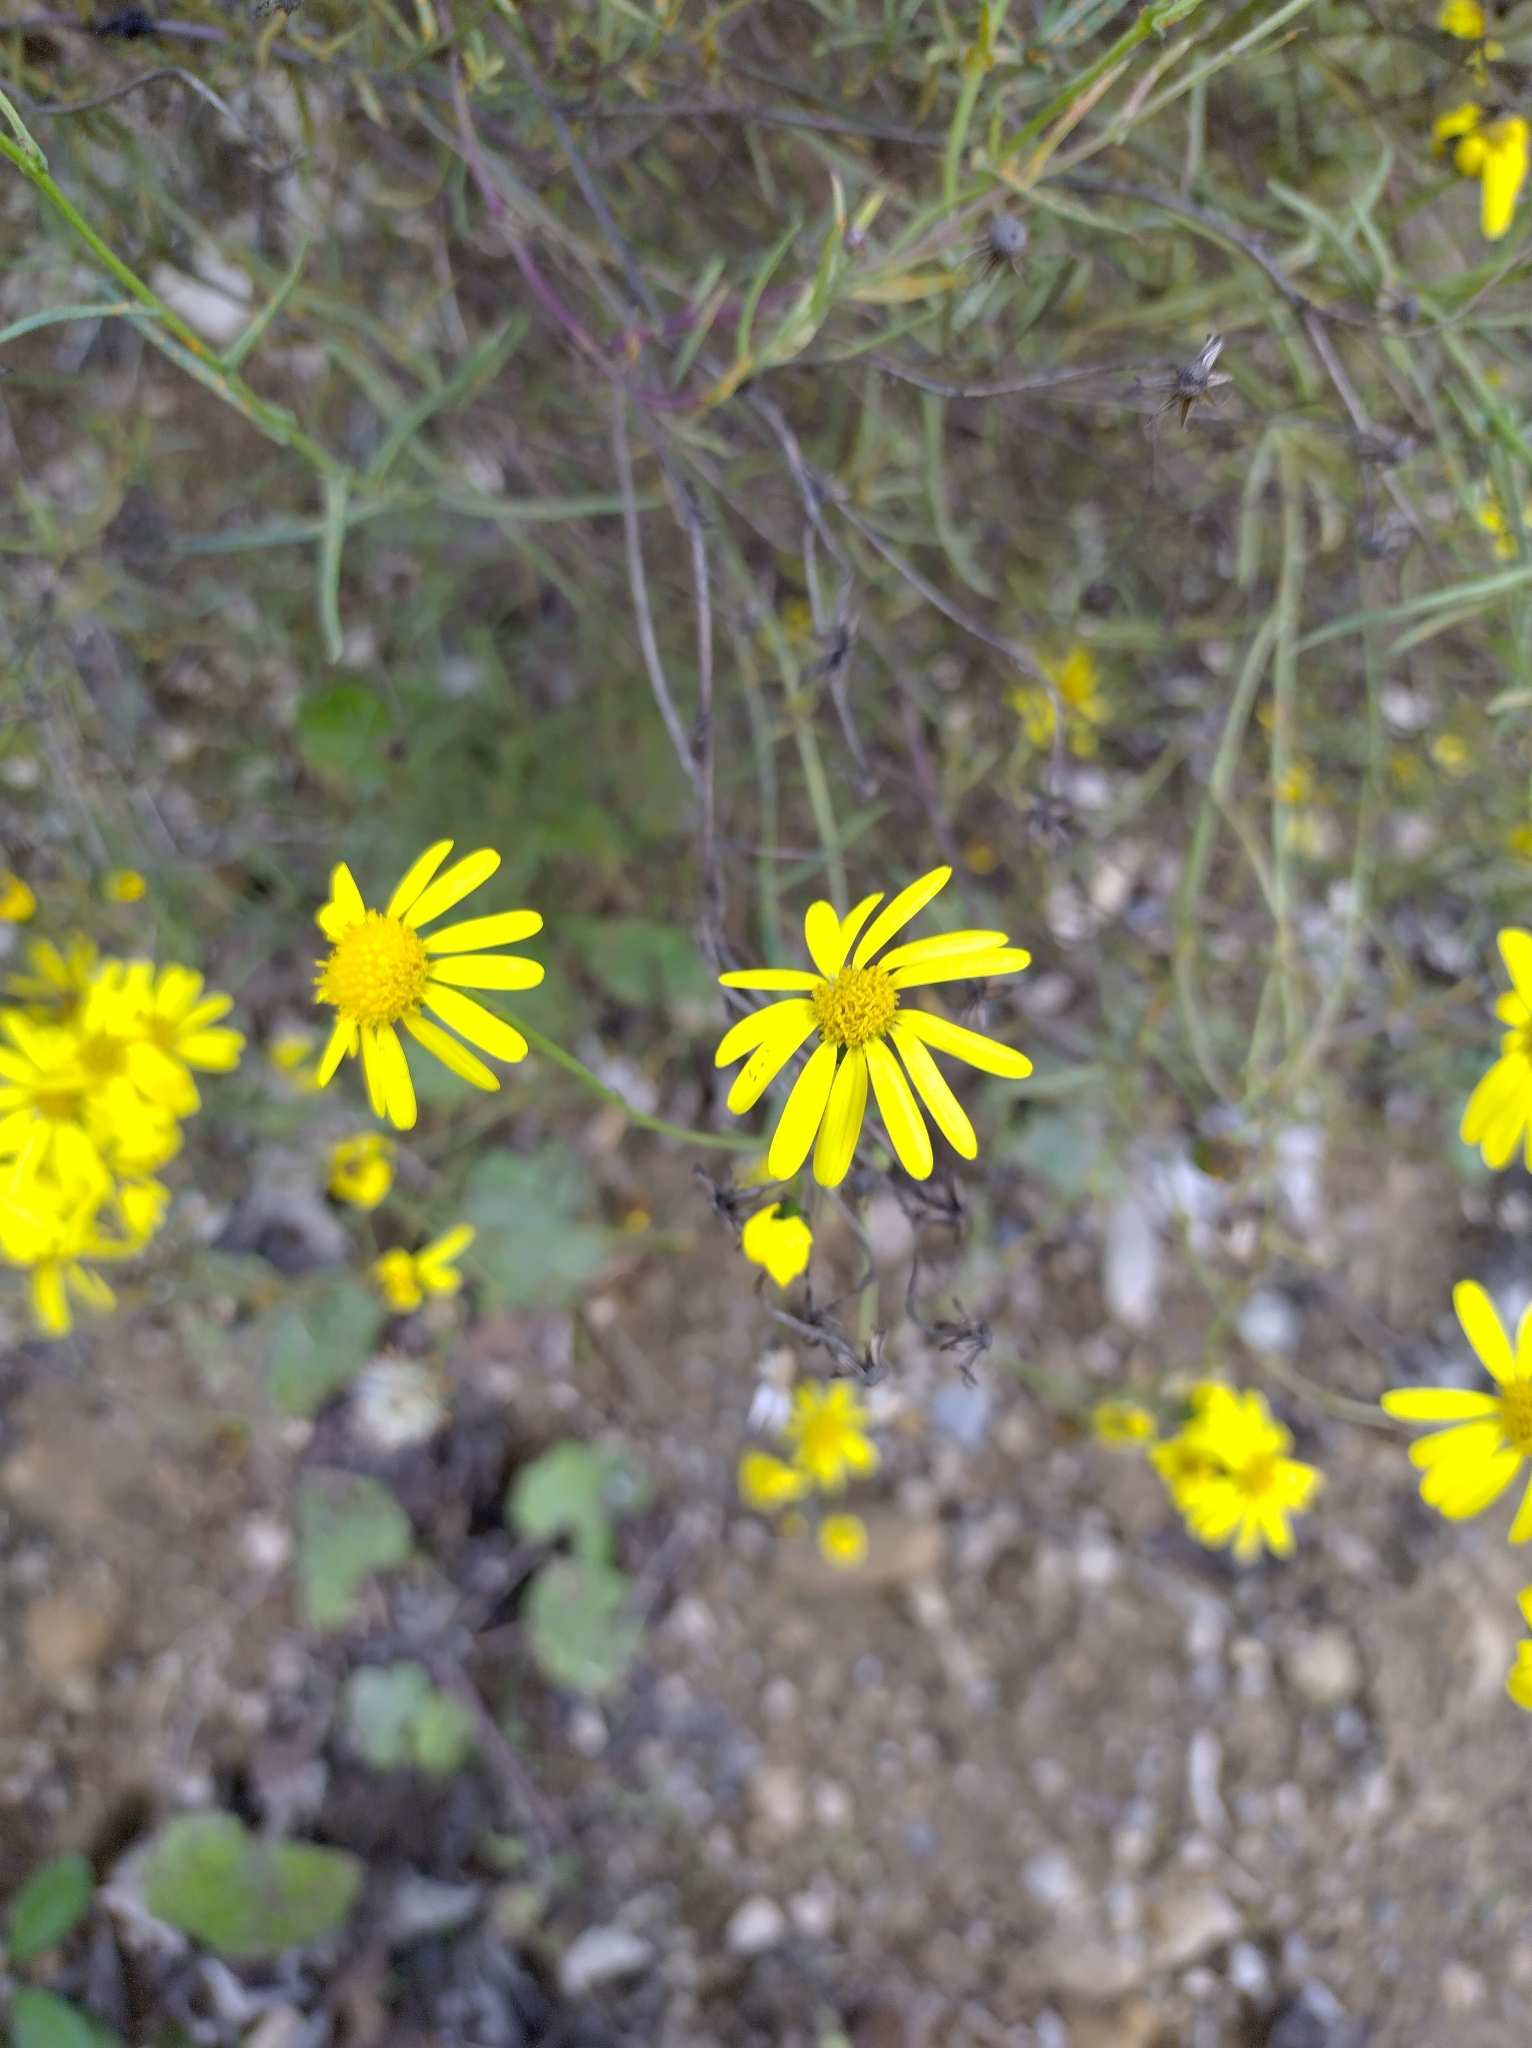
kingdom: Plantae
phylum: Tracheophyta
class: Magnoliopsida
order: Asterales
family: Asteraceae
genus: Senecio
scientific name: Senecio inaequidens
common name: Narrow-leaved ragwort
